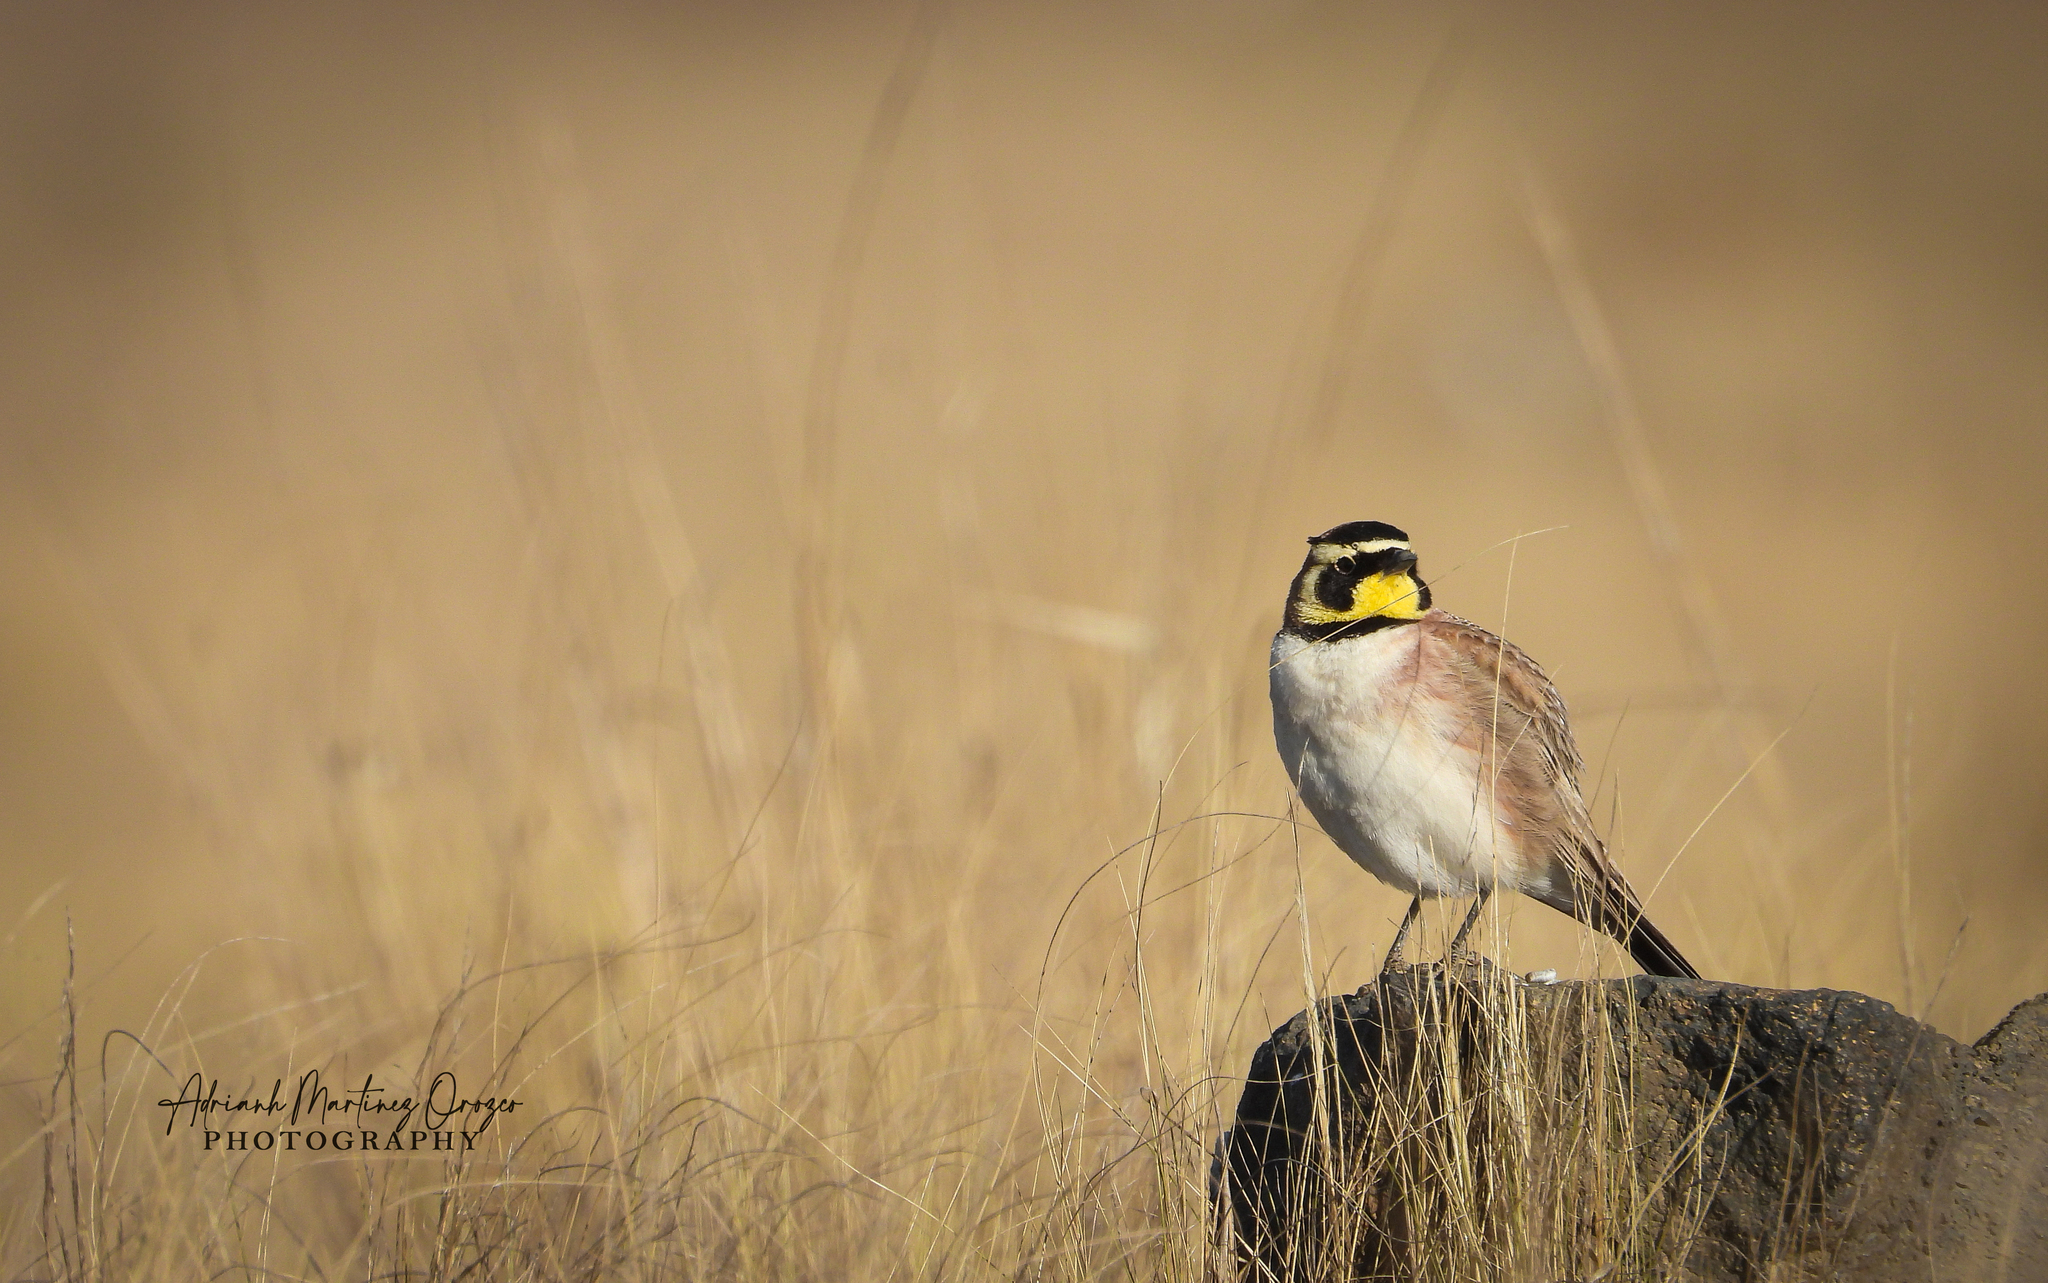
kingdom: Animalia
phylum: Chordata
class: Aves
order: Passeriformes
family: Alaudidae
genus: Eremophila
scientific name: Eremophila alpestris
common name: Horned lark
